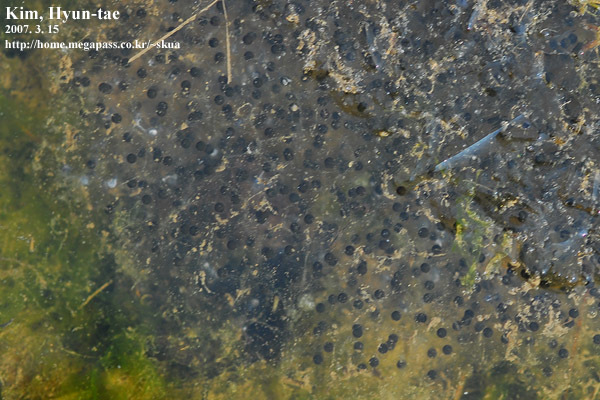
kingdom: Animalia
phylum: Chordata
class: Amphibia
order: Anura
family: Ranidae
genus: Rana
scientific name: Rana uenoi
